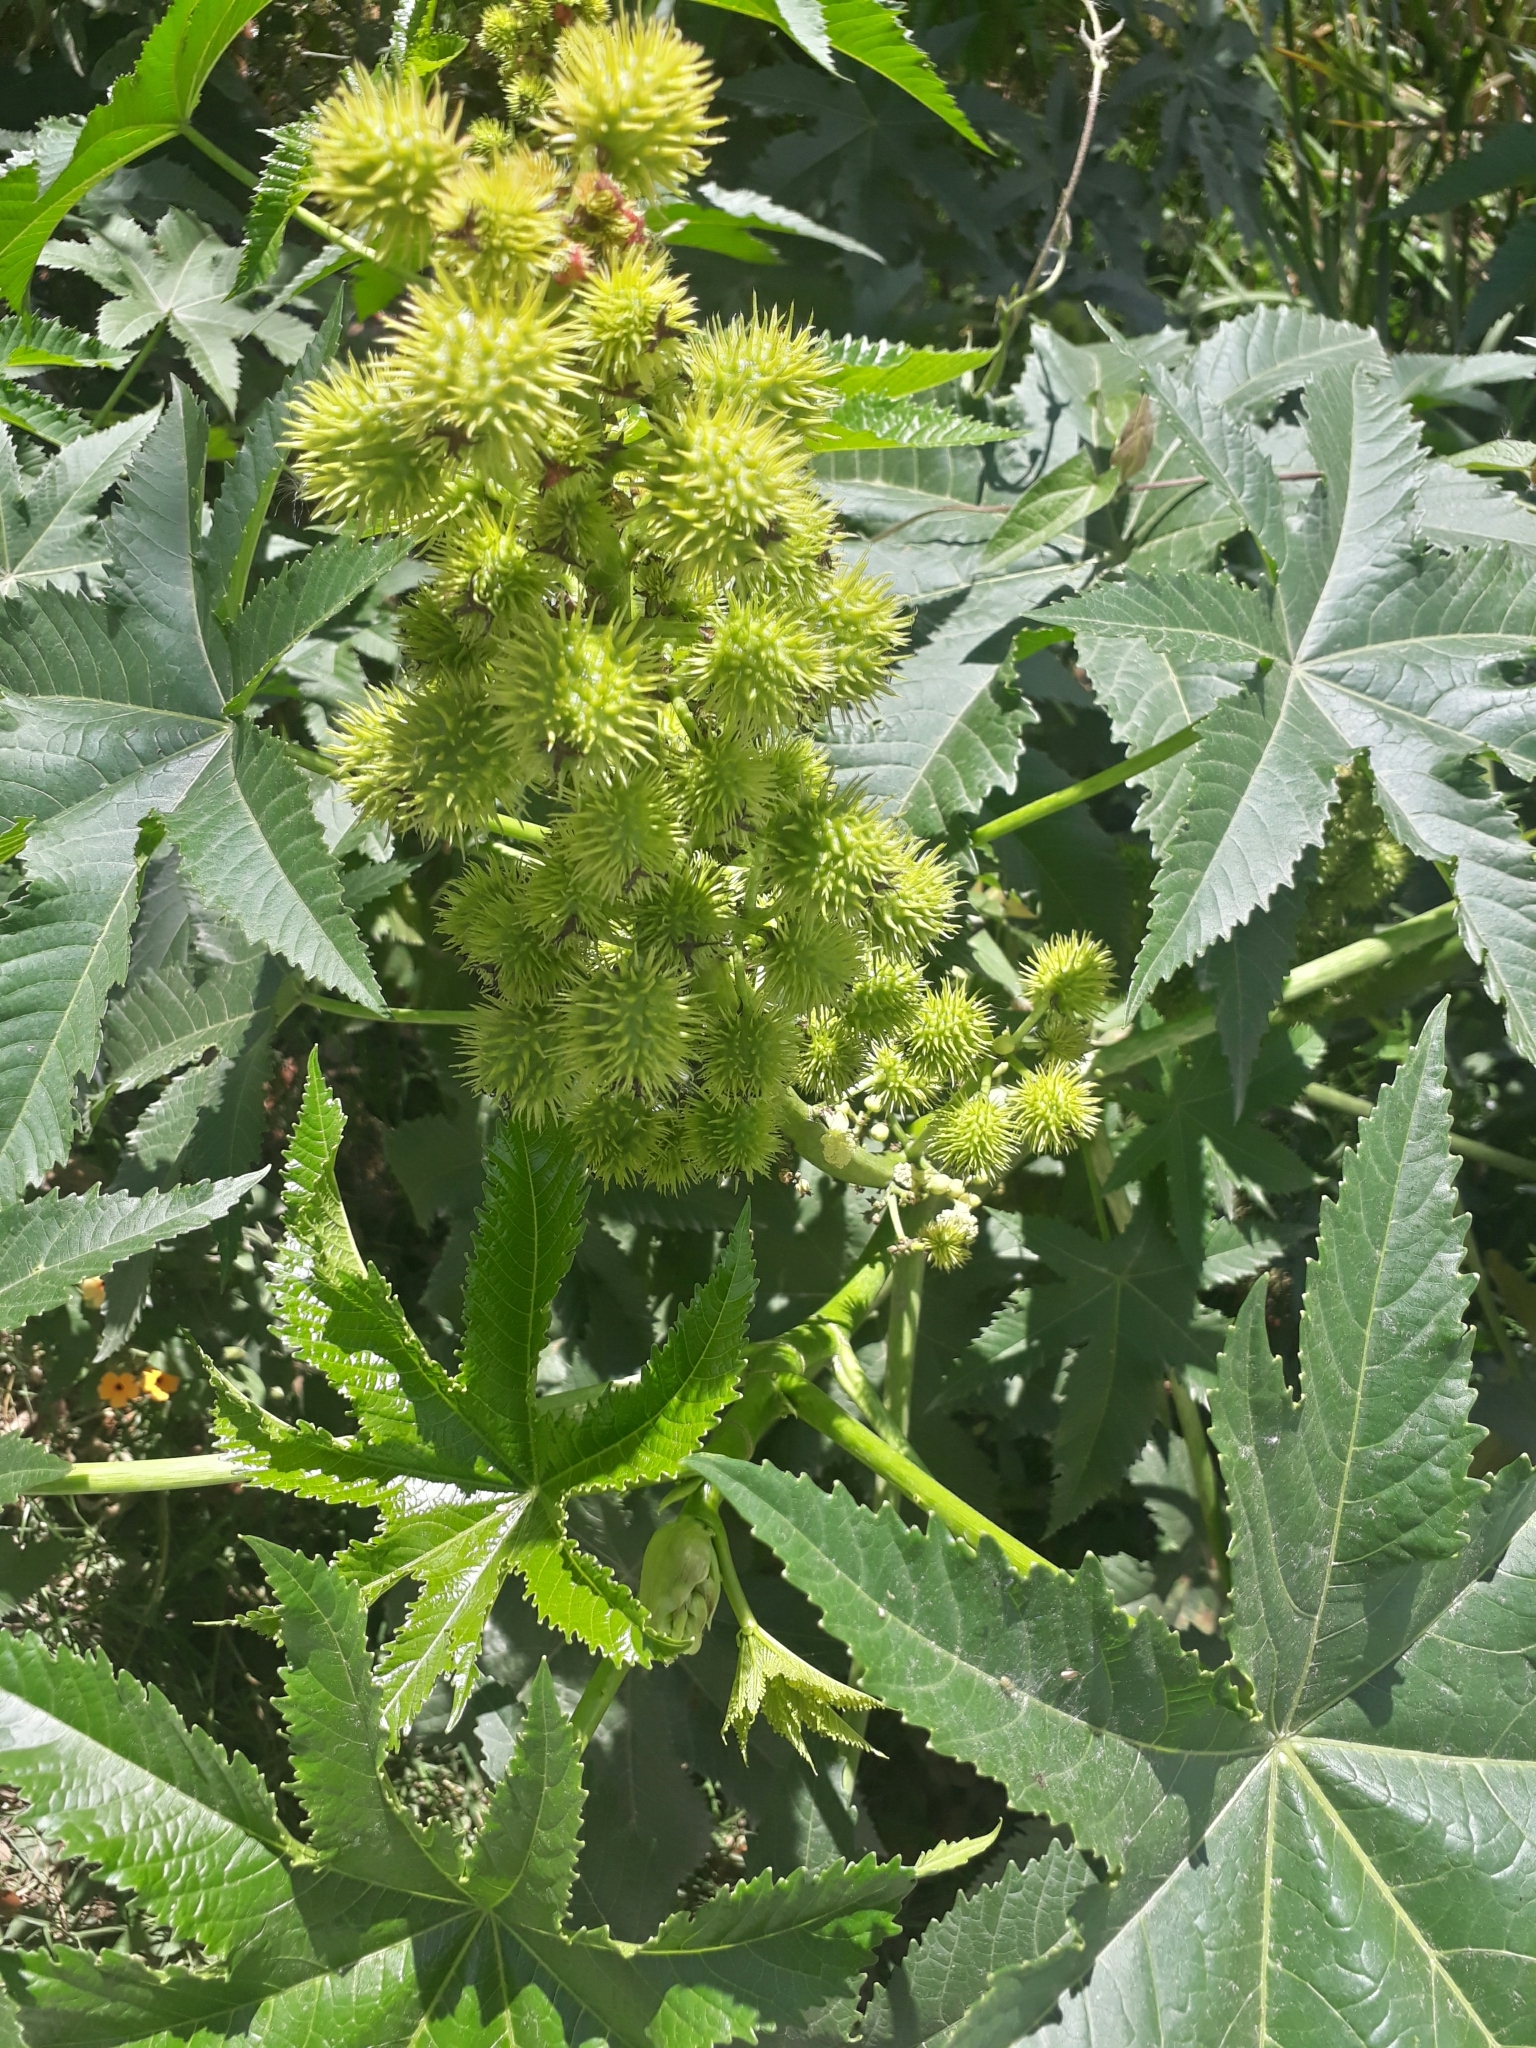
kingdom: Plantae
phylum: Tracheophyta
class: Magnoliopsida
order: Malpighiales
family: Euphorbiaceae
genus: Ricinus
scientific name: Ricinus communis
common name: Castor-oil-plant
